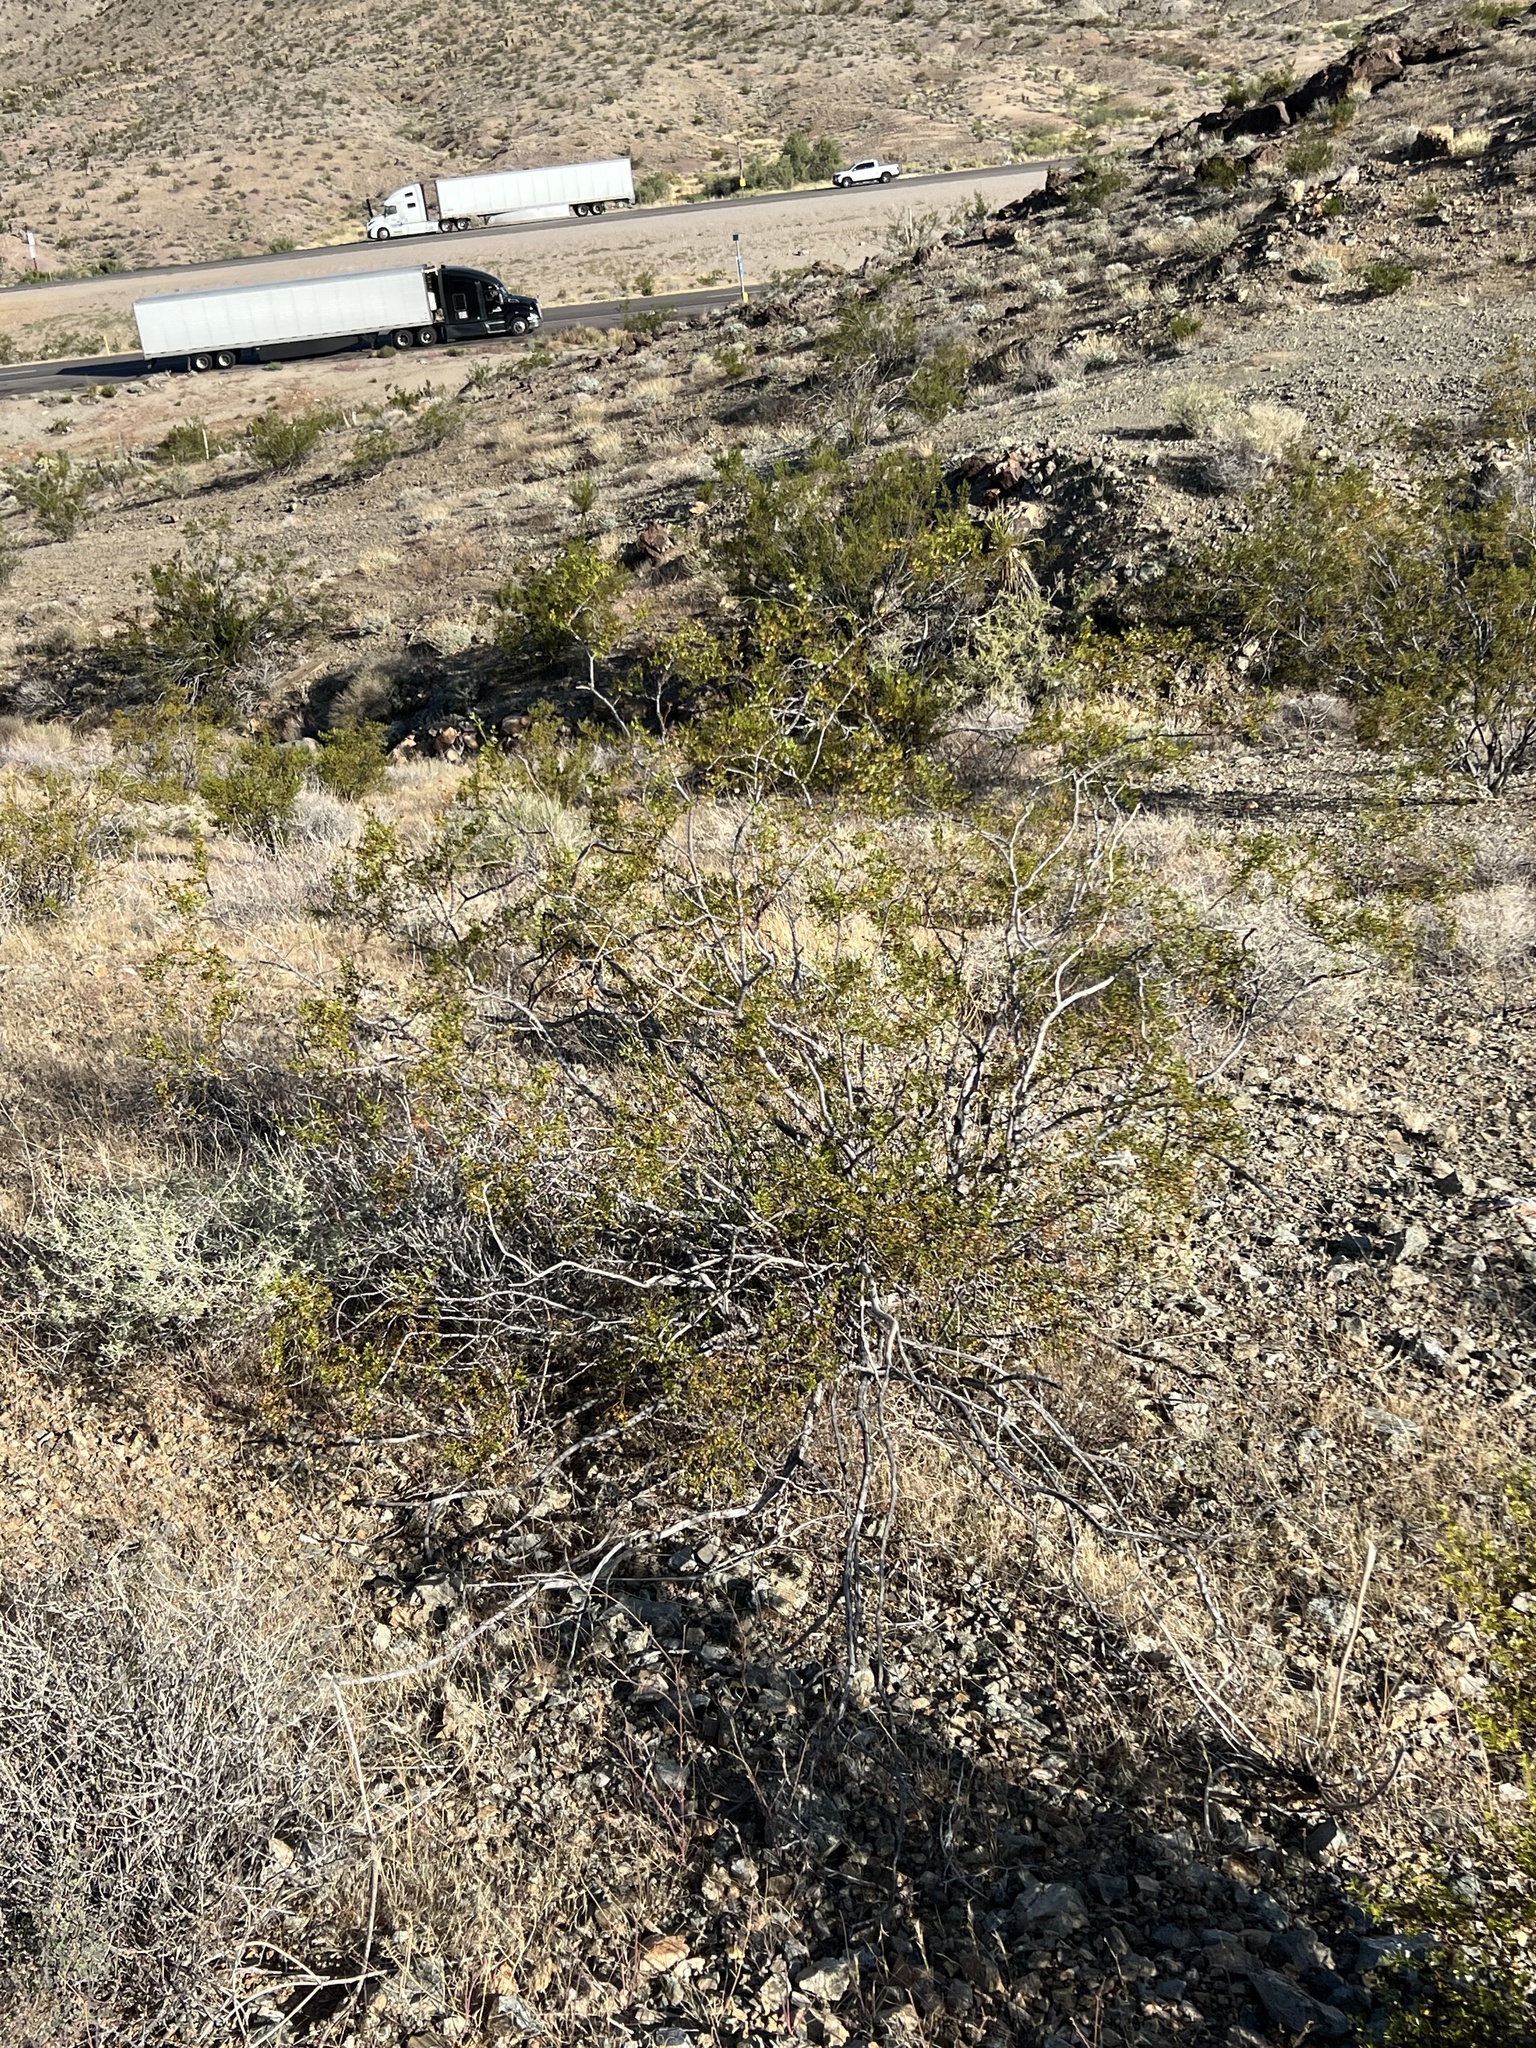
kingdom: Plantae
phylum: Tracheophyta
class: Magnoliopsida
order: Zygophyllales
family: Zygophyllaceae
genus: Larrea
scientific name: Larrea tridentata
